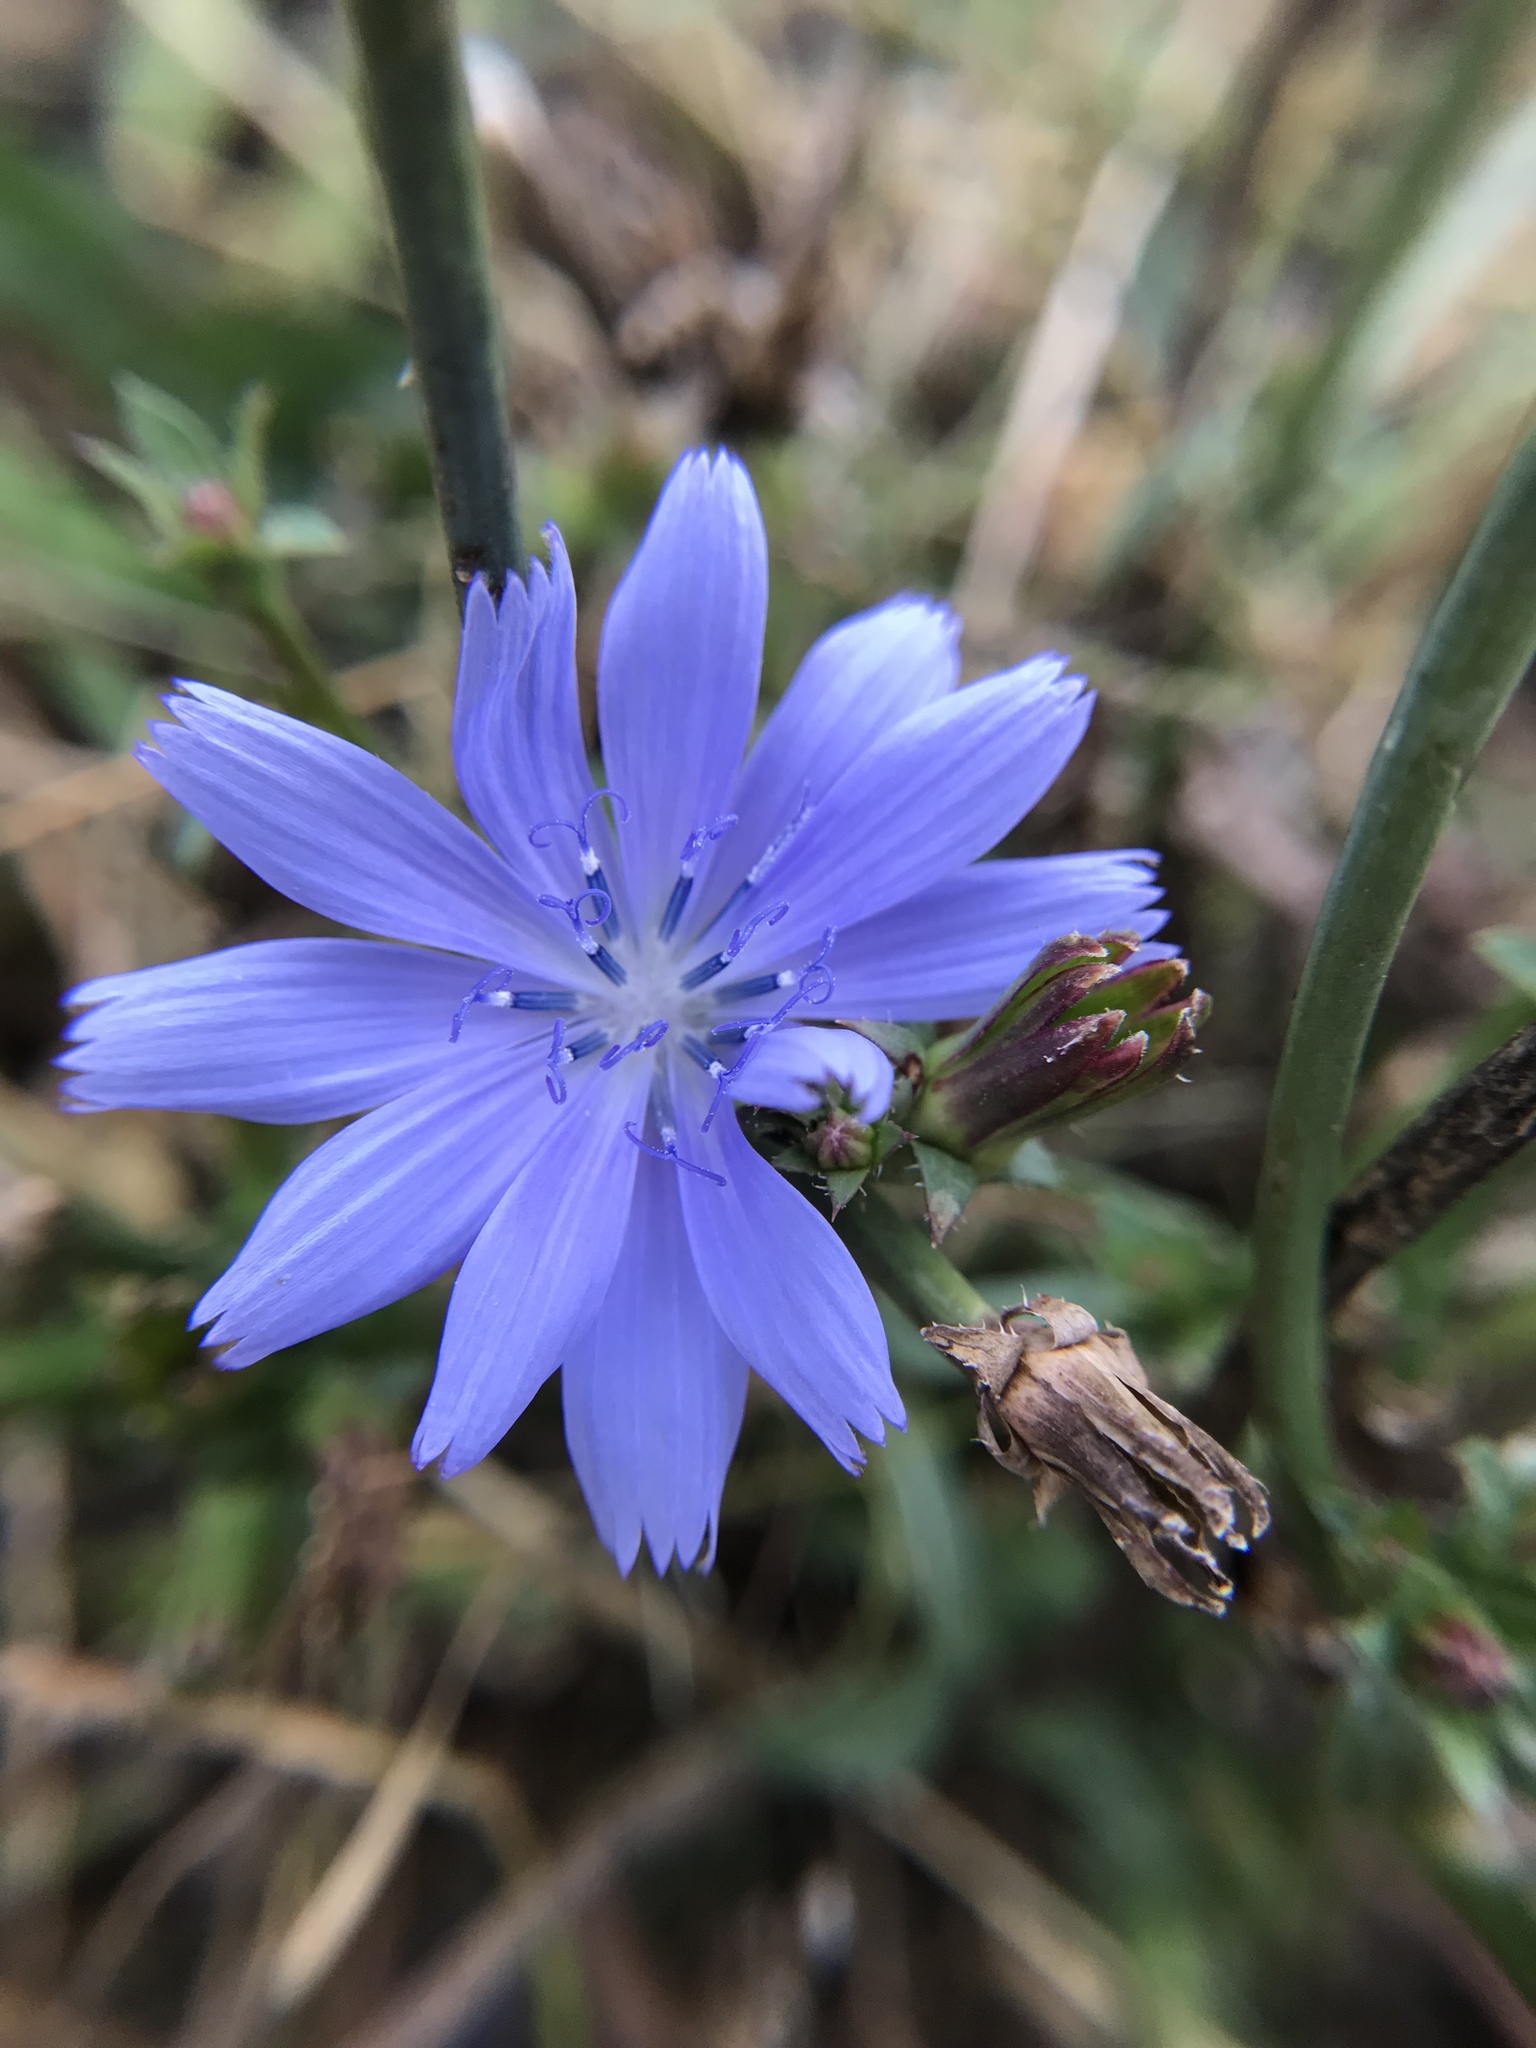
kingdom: Plantae
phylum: Tracheophyta
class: Magnoliopsida
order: Asterales
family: Asteraceae
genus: Cichorium
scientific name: Cichorium intybus
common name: Chicory
